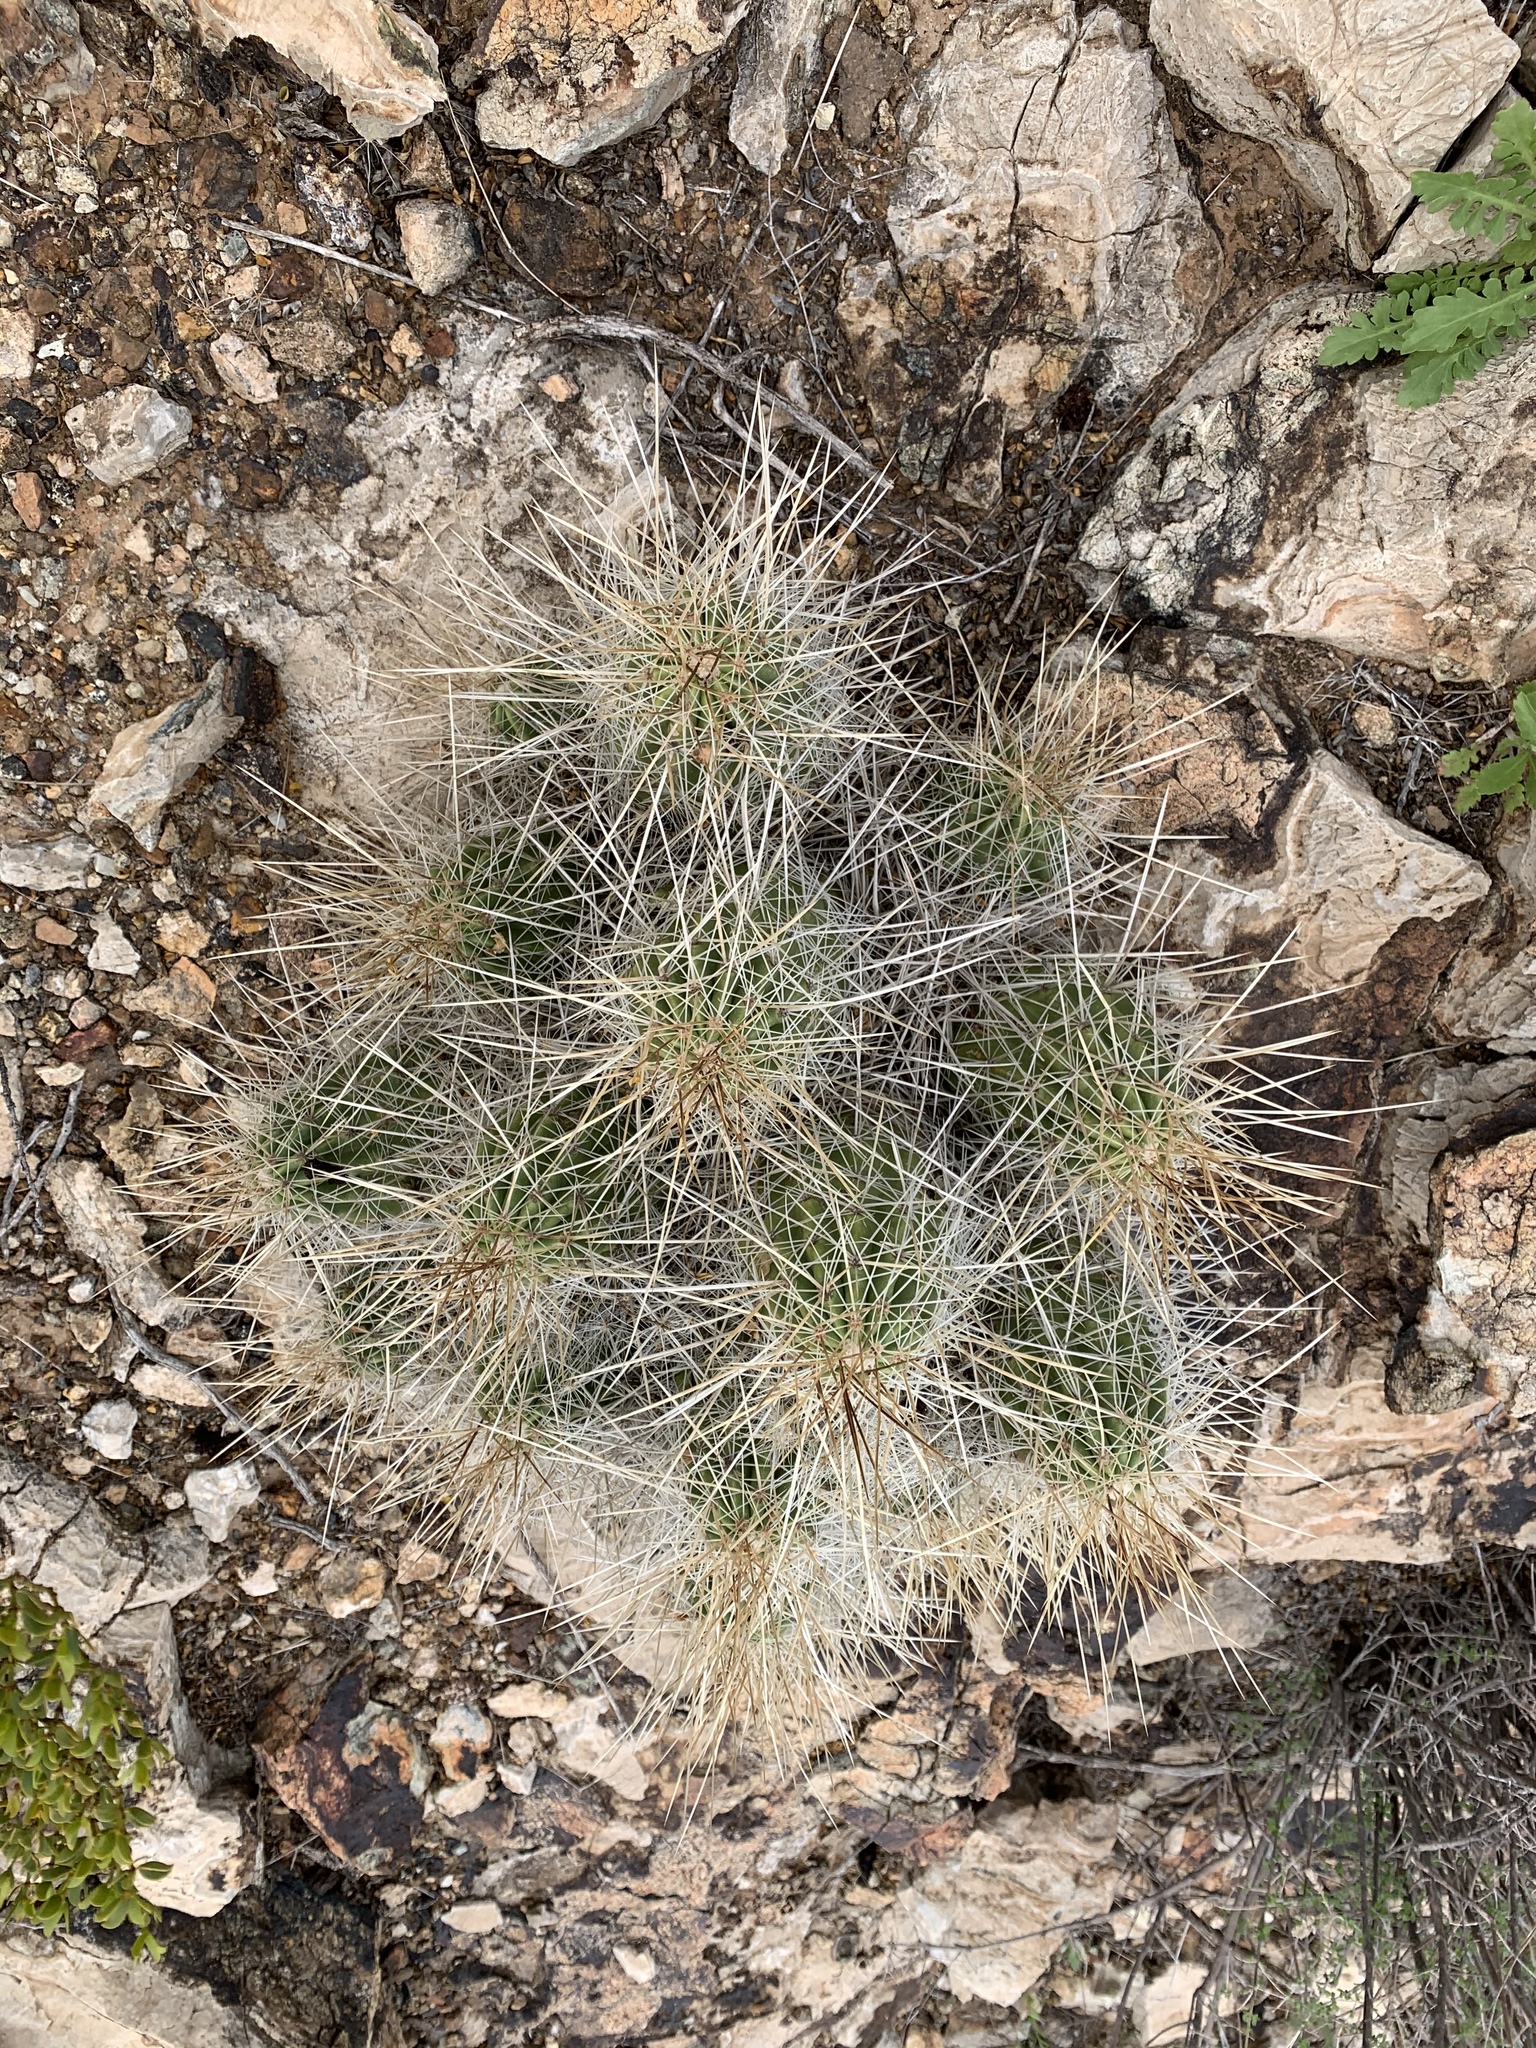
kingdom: Plantae
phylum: Tracheophyta
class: Magnoliopsida
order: Caryophyllales
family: Cactaceae
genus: Echinocereus
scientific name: Echinocereus stramineus
